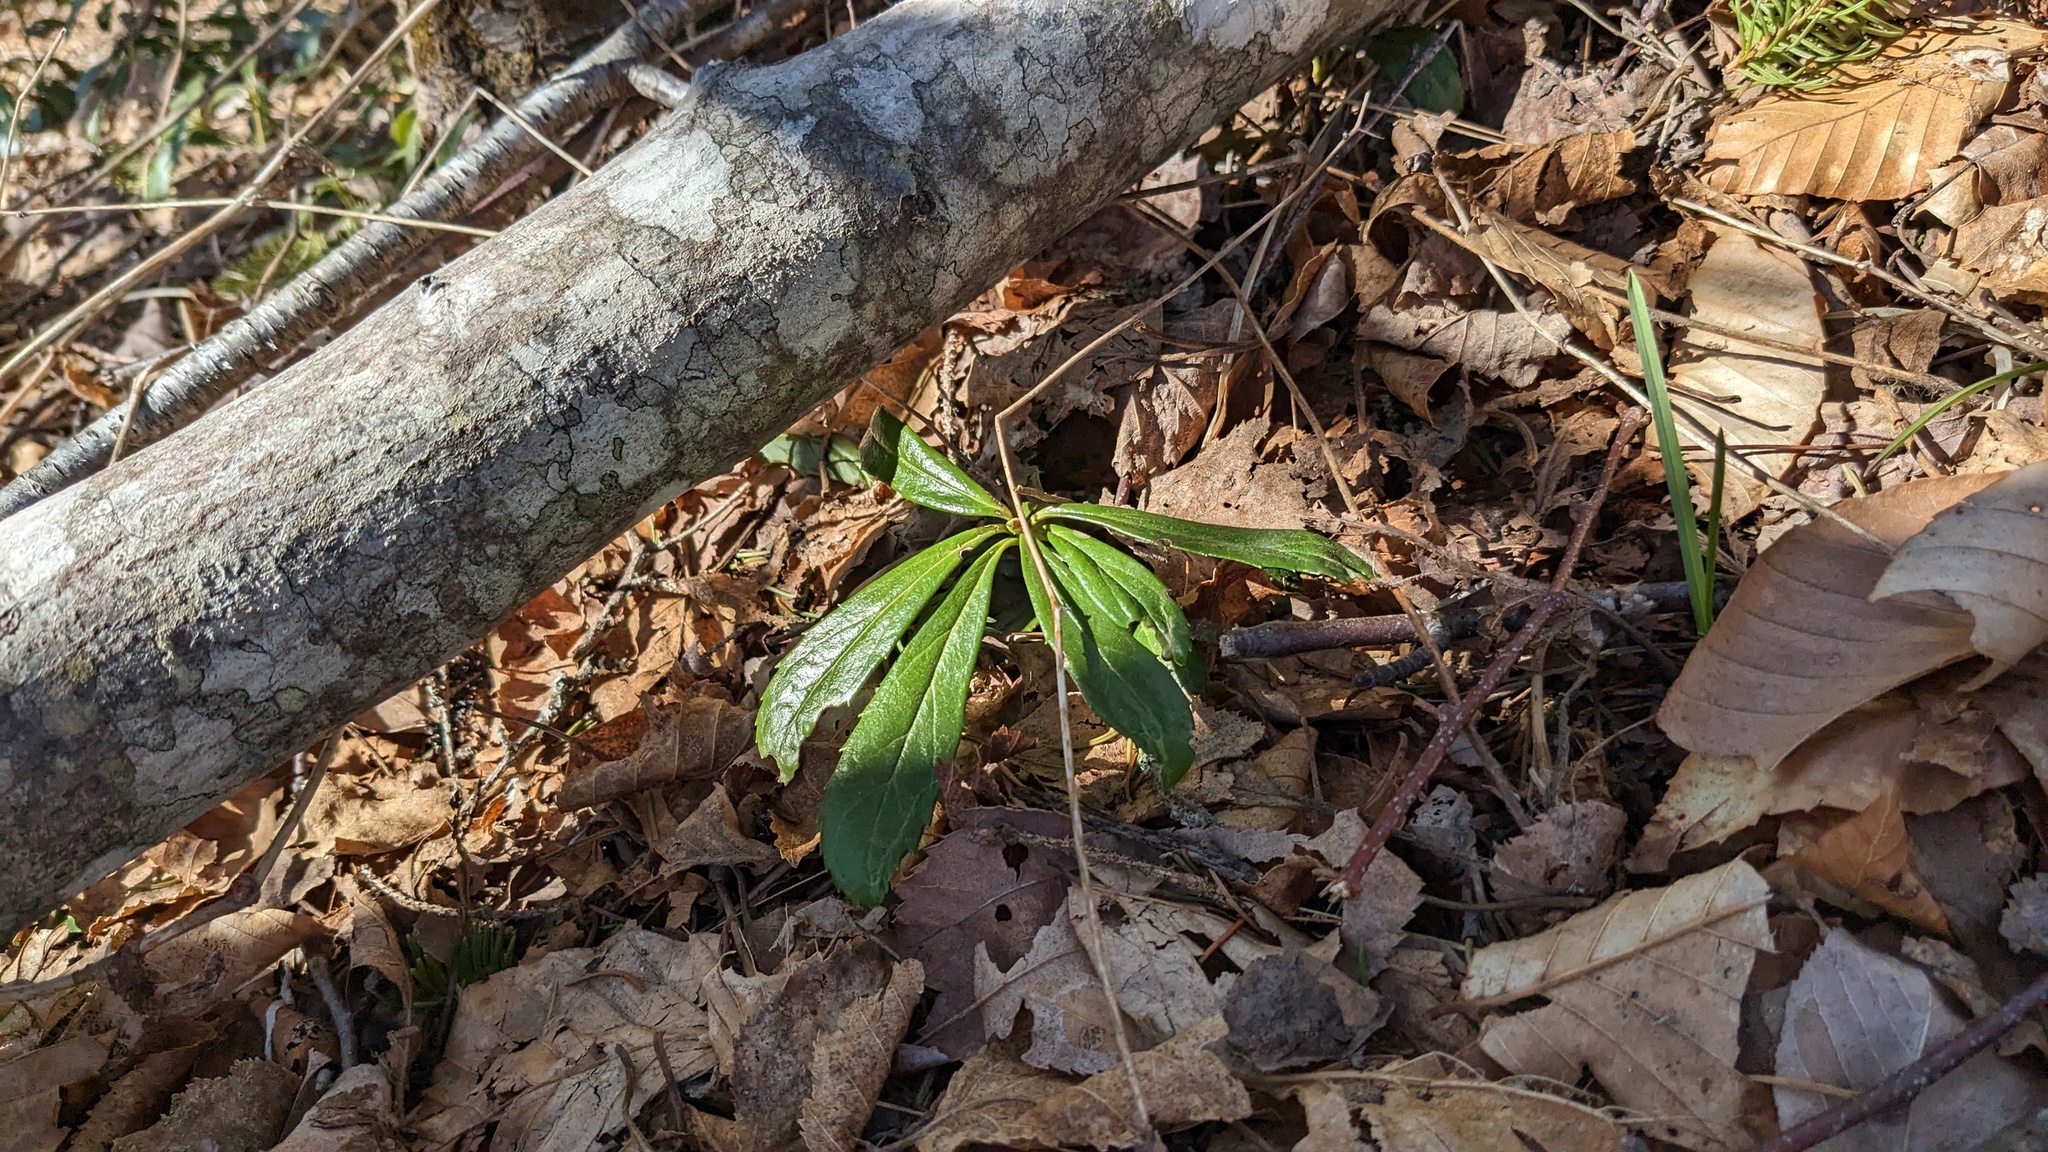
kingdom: Plantae
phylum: Tracheophyta
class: Magnoliopsida
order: Ericales
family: Ericaceae
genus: Chimaphila
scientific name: Chimaphila umbellata
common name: Pipsissewa
